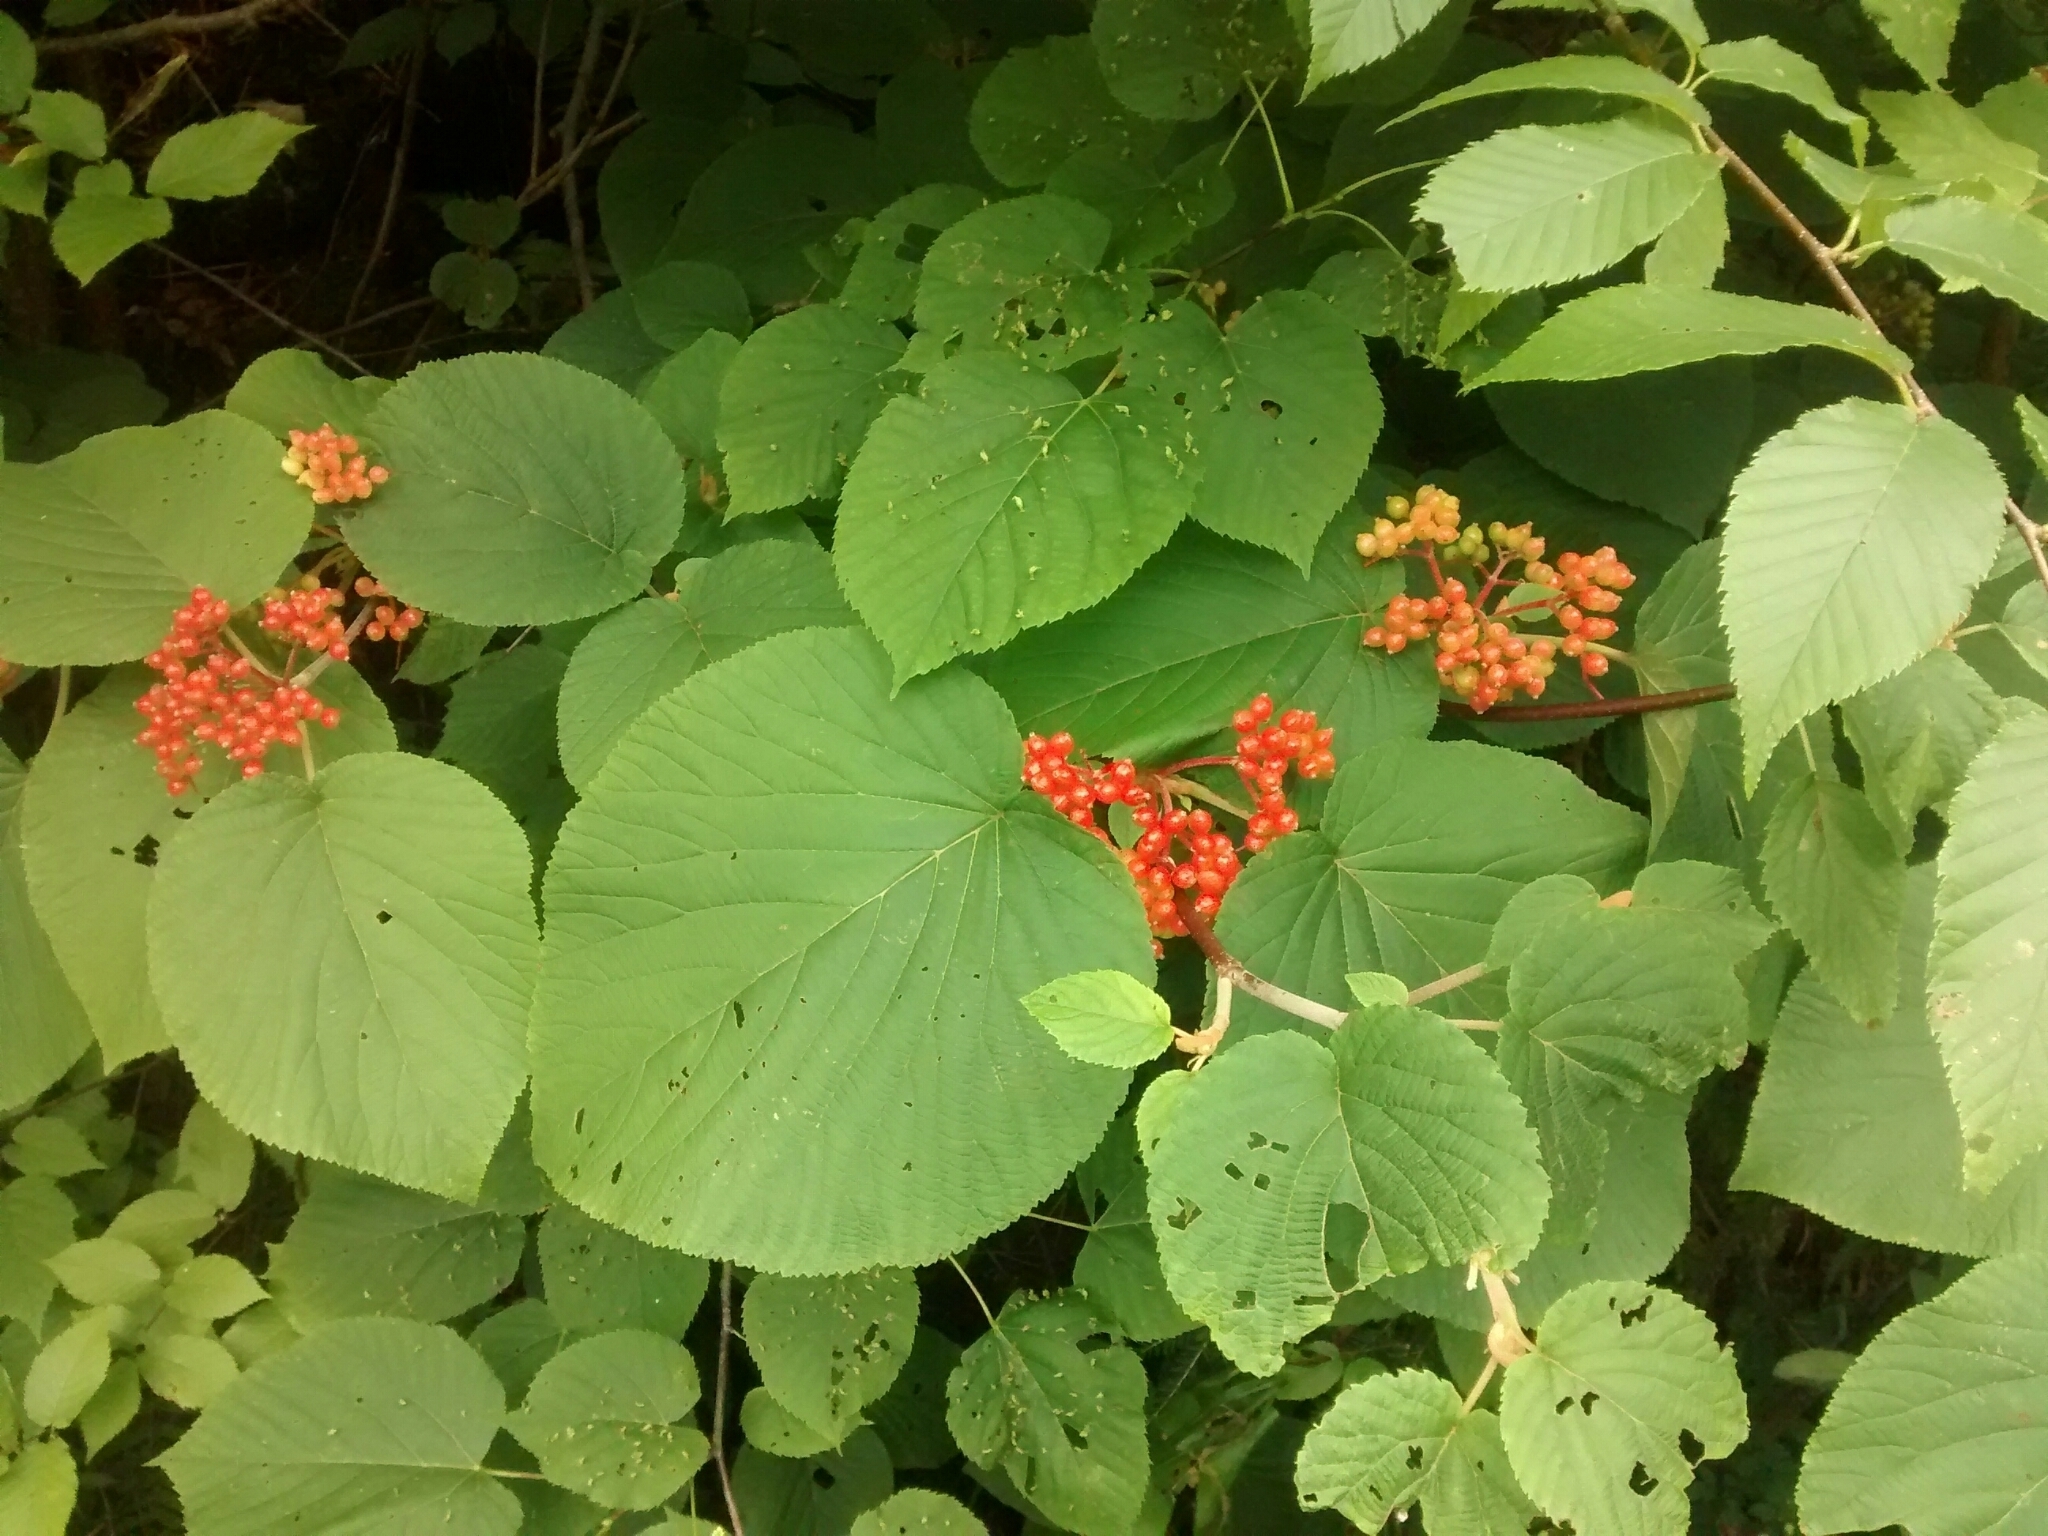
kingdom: Plantae
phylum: Tracheophyta
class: Magnoliopsida
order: Dipsacales
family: Viburnaceae
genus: Viburnum
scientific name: Viburnum lantanoides
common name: Hobblebush
